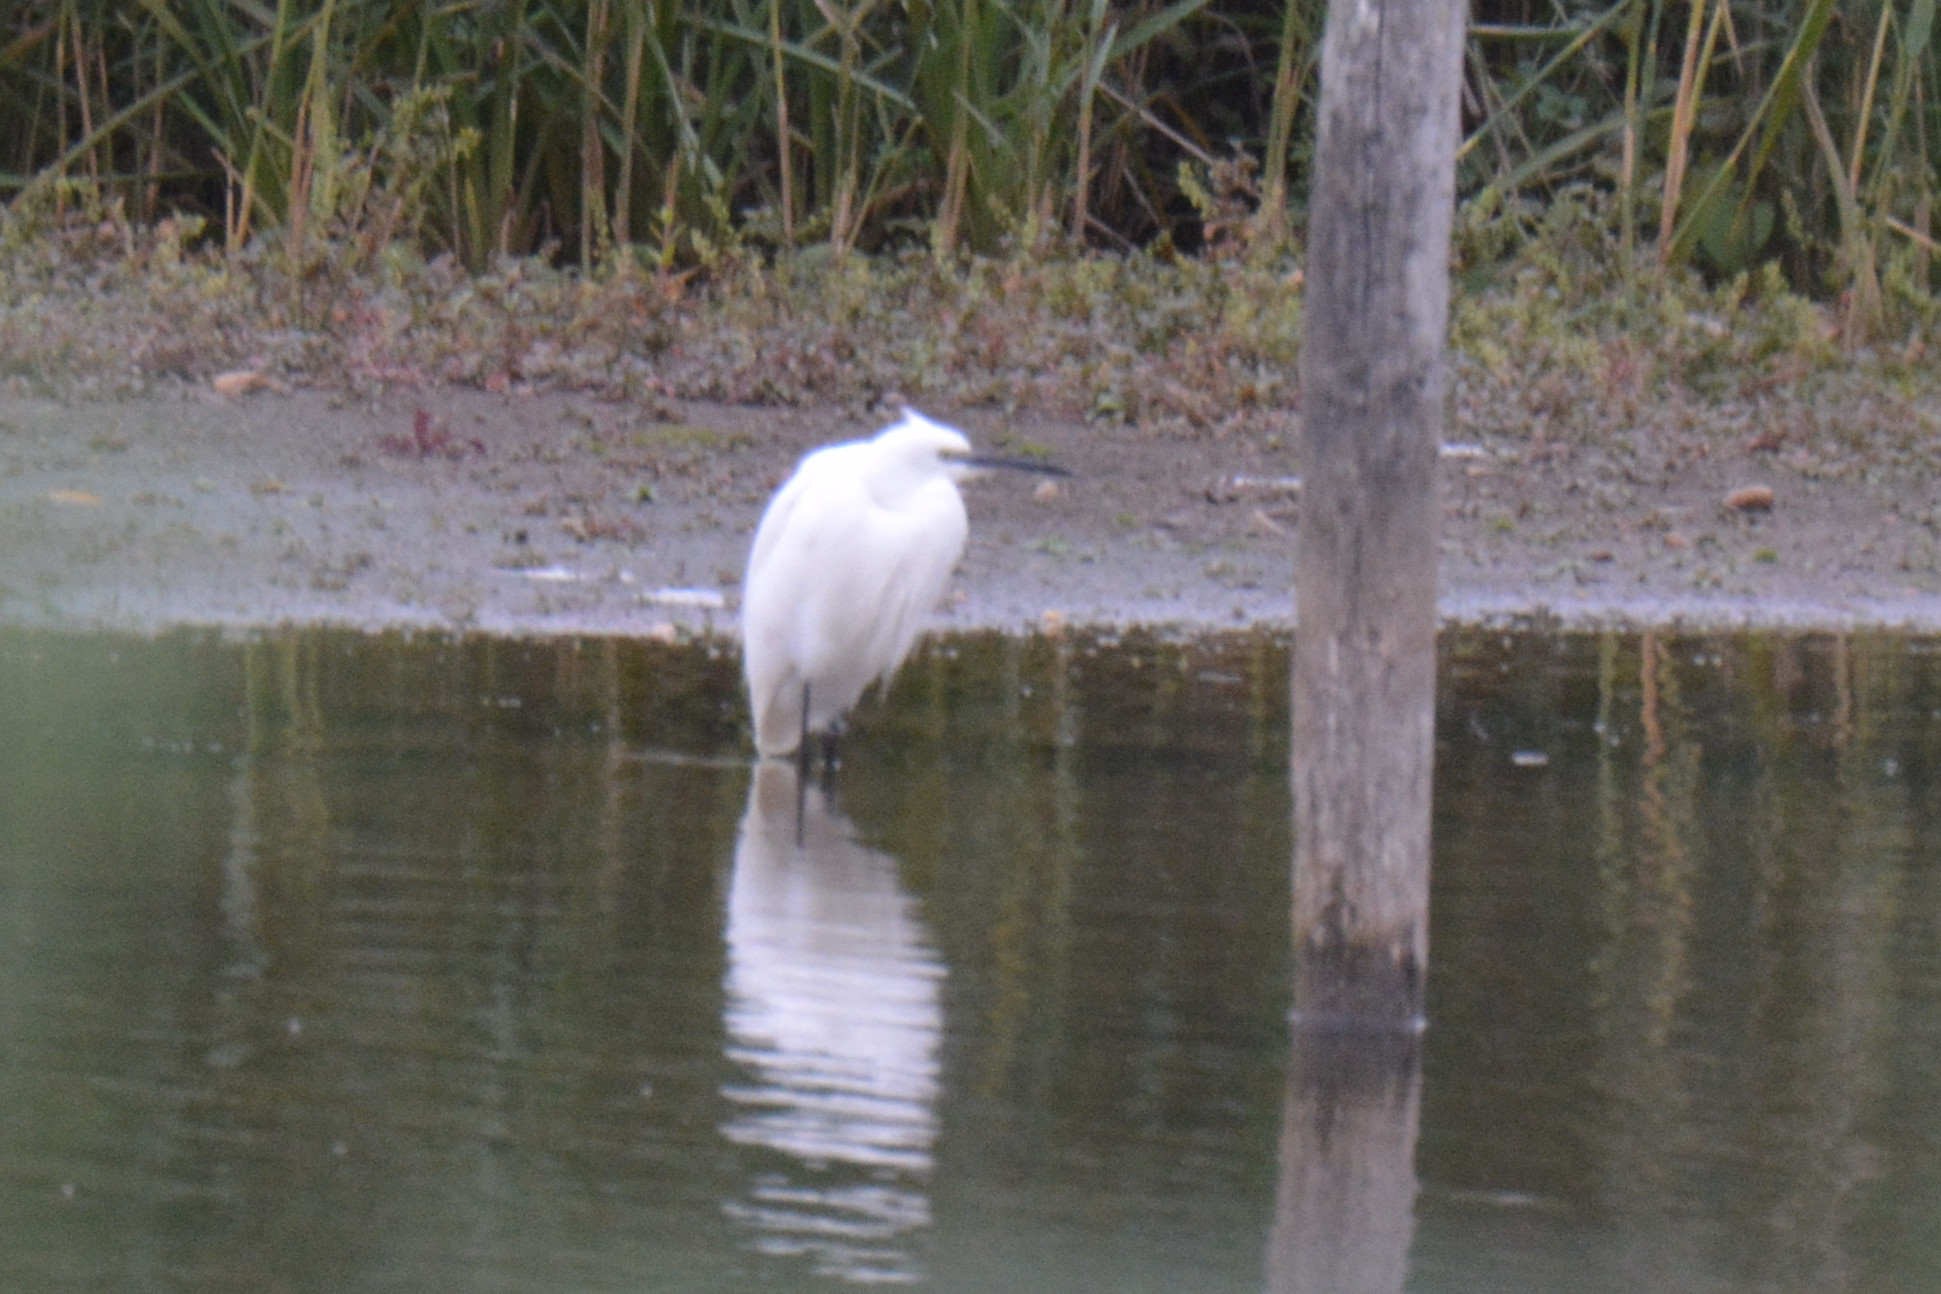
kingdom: Animalia
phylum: Chordata
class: Aves
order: Pelecaniformes
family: Ardeidae
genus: Egretta
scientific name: Egretta garzetta
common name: Little egret
